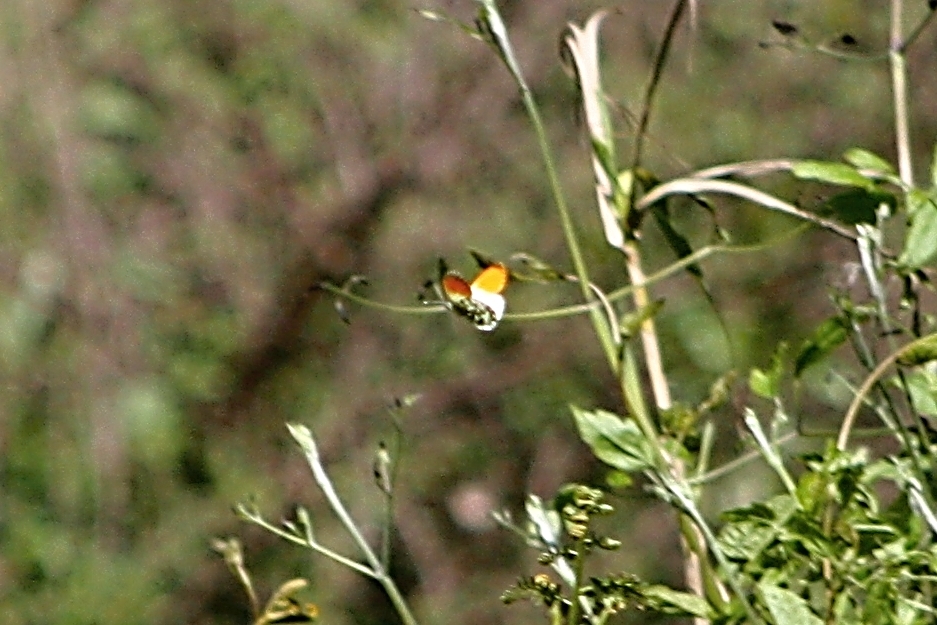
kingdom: Animalia
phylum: Arthropoda
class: Insecta
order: Lepidoptera
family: Pieridae
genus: Anthocharis
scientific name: Anthocharis cardamines
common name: Orange-tip
